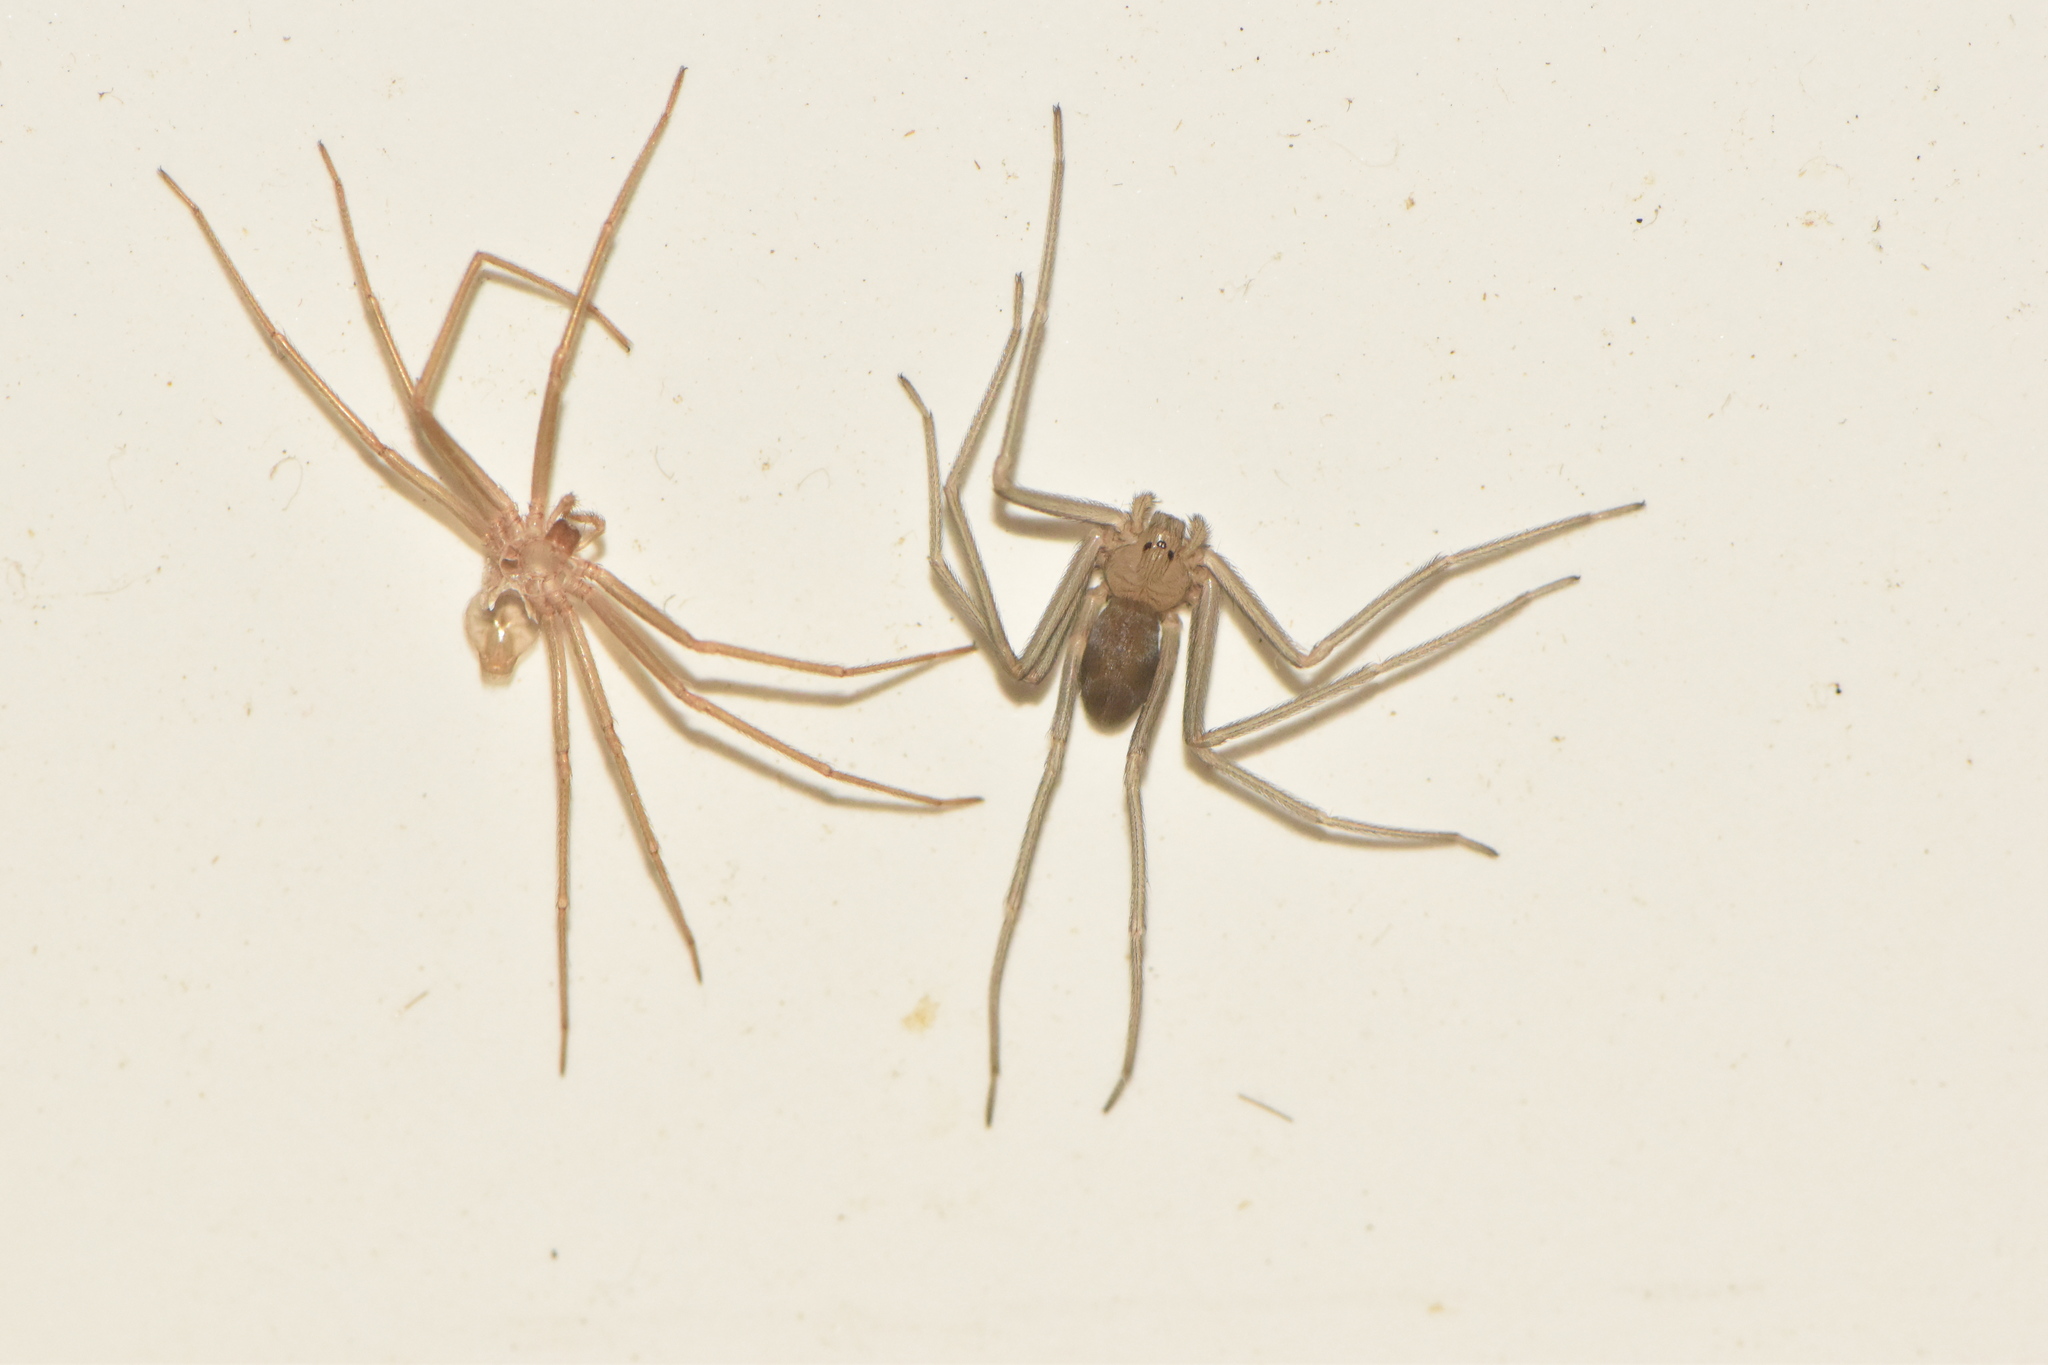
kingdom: Animalia
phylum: Arthropoda
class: Arachnida
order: Araneae
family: Sicariidae
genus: Loxosceles
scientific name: Loxosceles rufescens
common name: Mediterranean recluse spider
